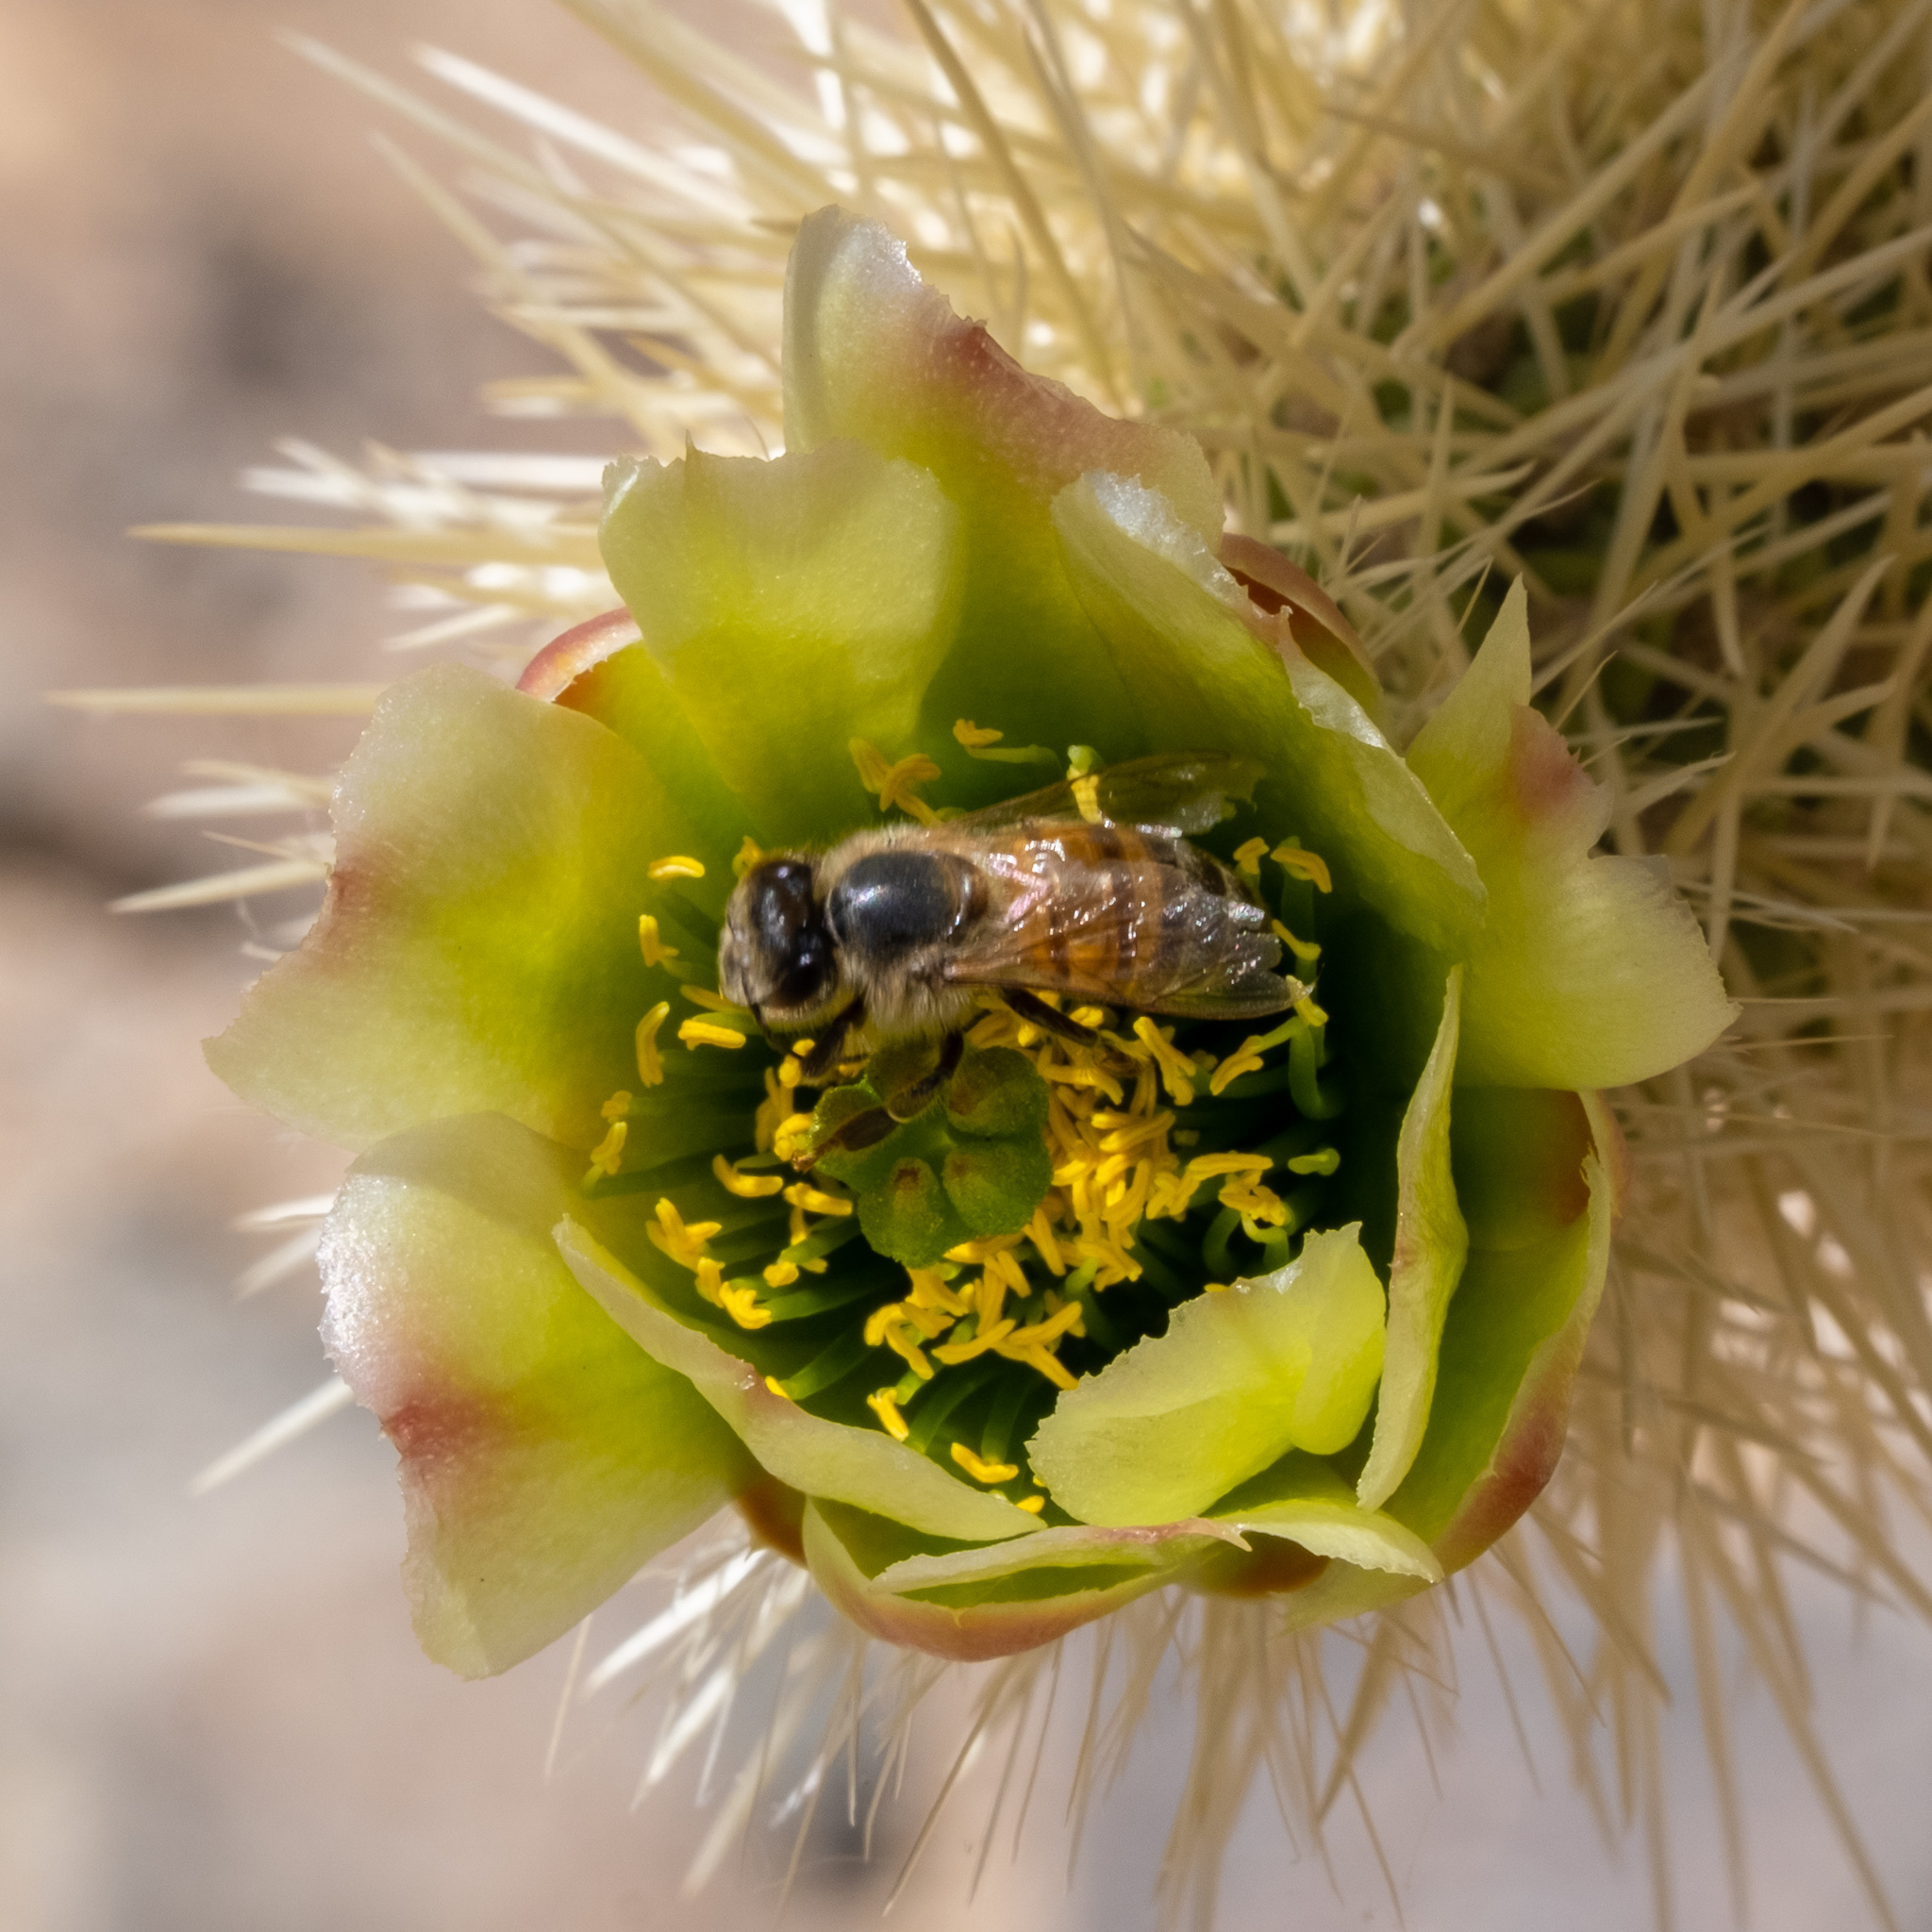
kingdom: Plantae
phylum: Tracheophyta
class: Magnoliopsida
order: Caryophyllales
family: Cactaceae
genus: Cylindropuntia
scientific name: Cylindropuntia fosbergii
